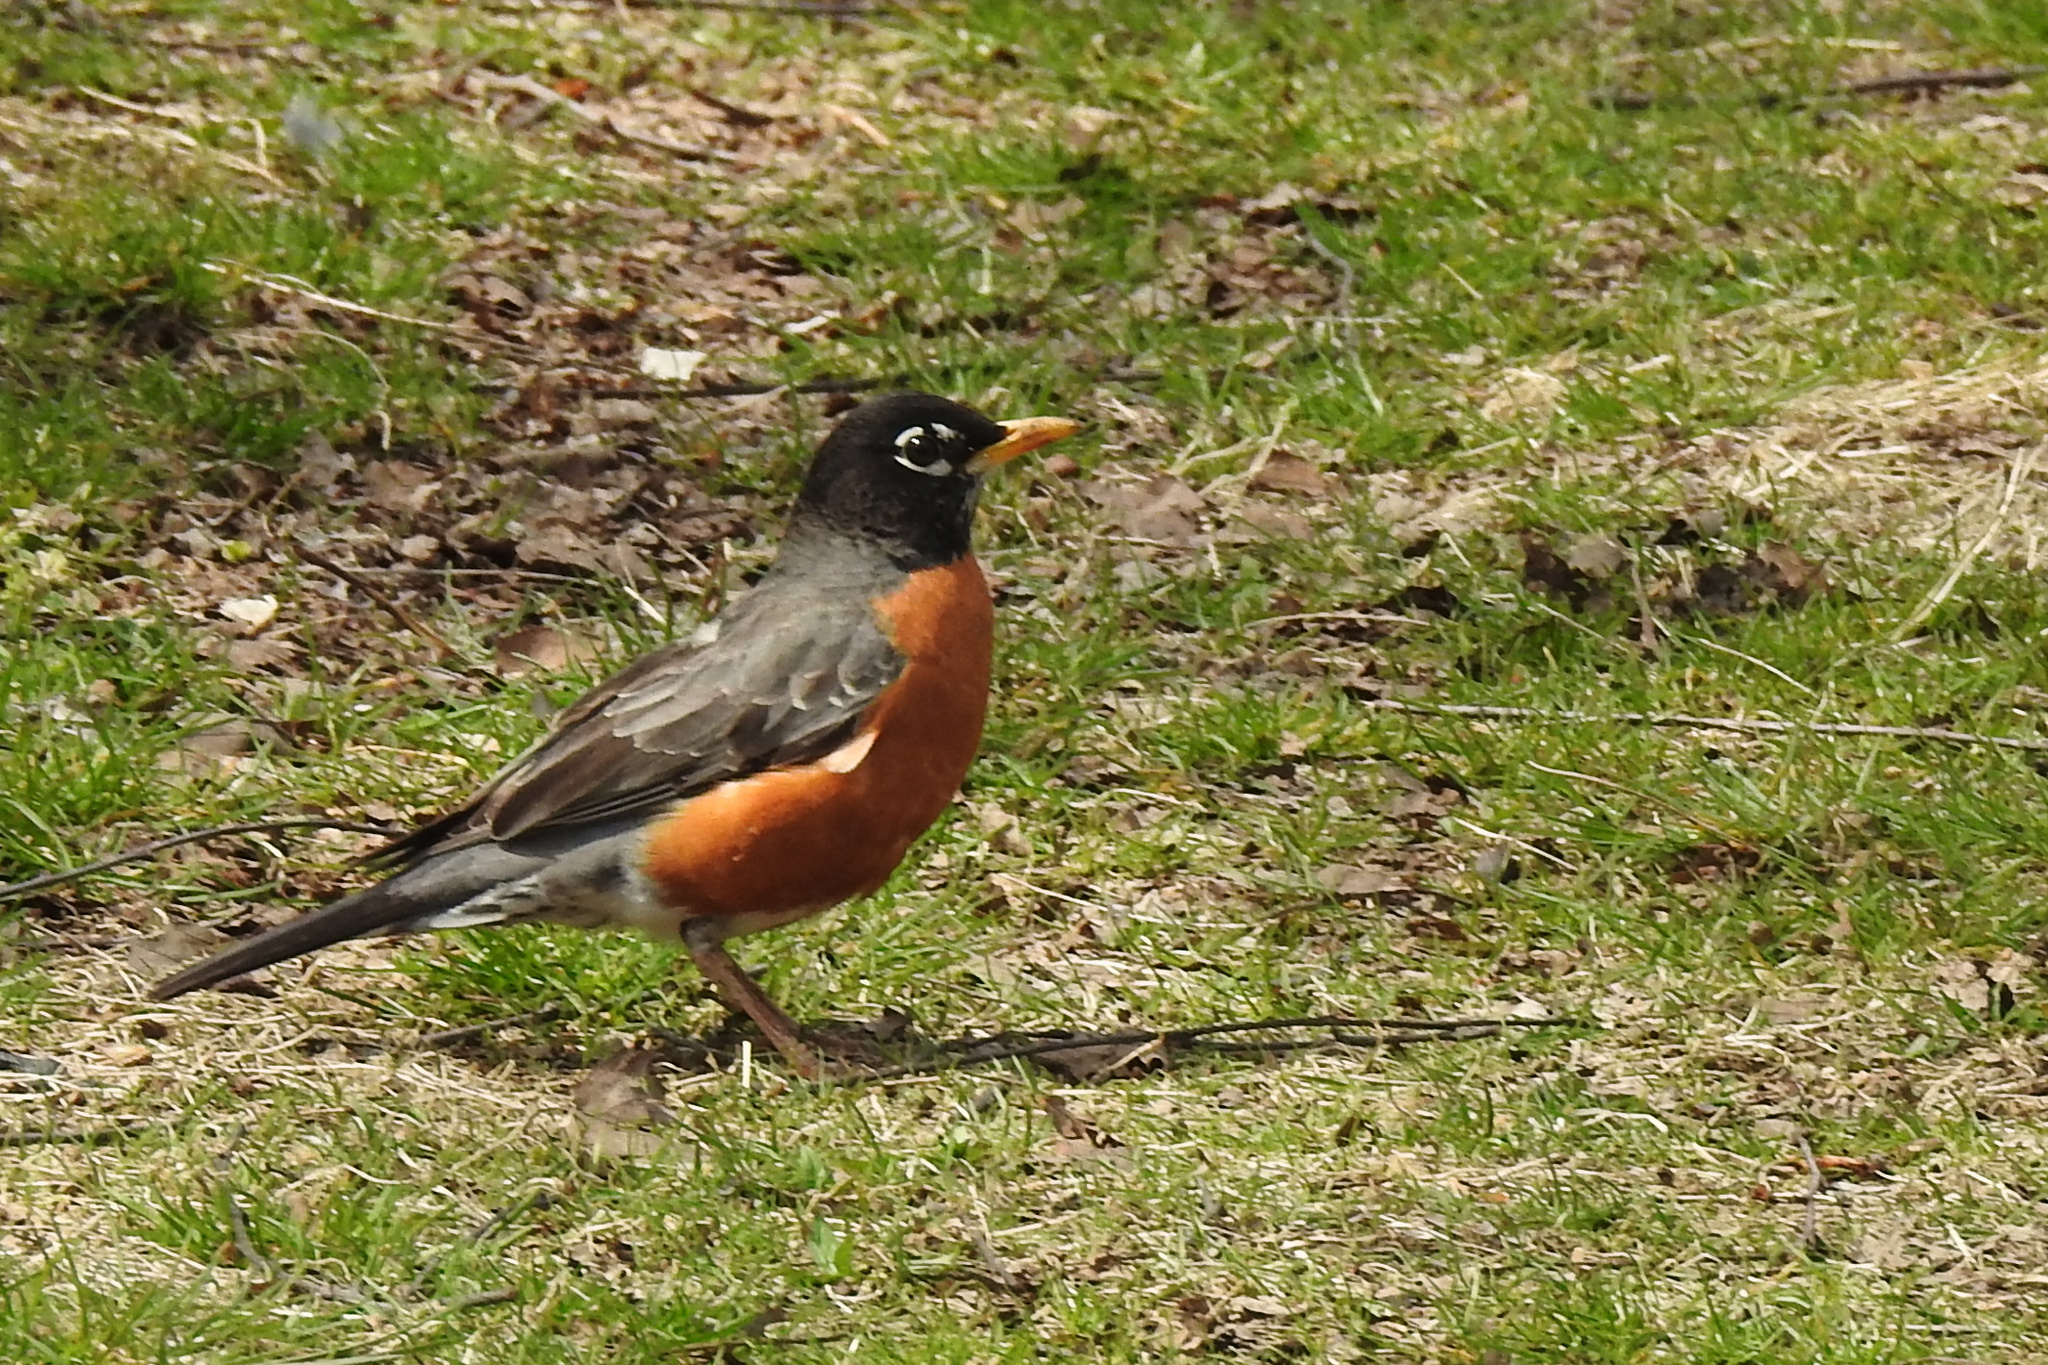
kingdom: Animalia
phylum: Chordata
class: Aves
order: Passeriformes
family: Turdidae
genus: Turdus
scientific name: Turdus migratorius
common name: American robin
